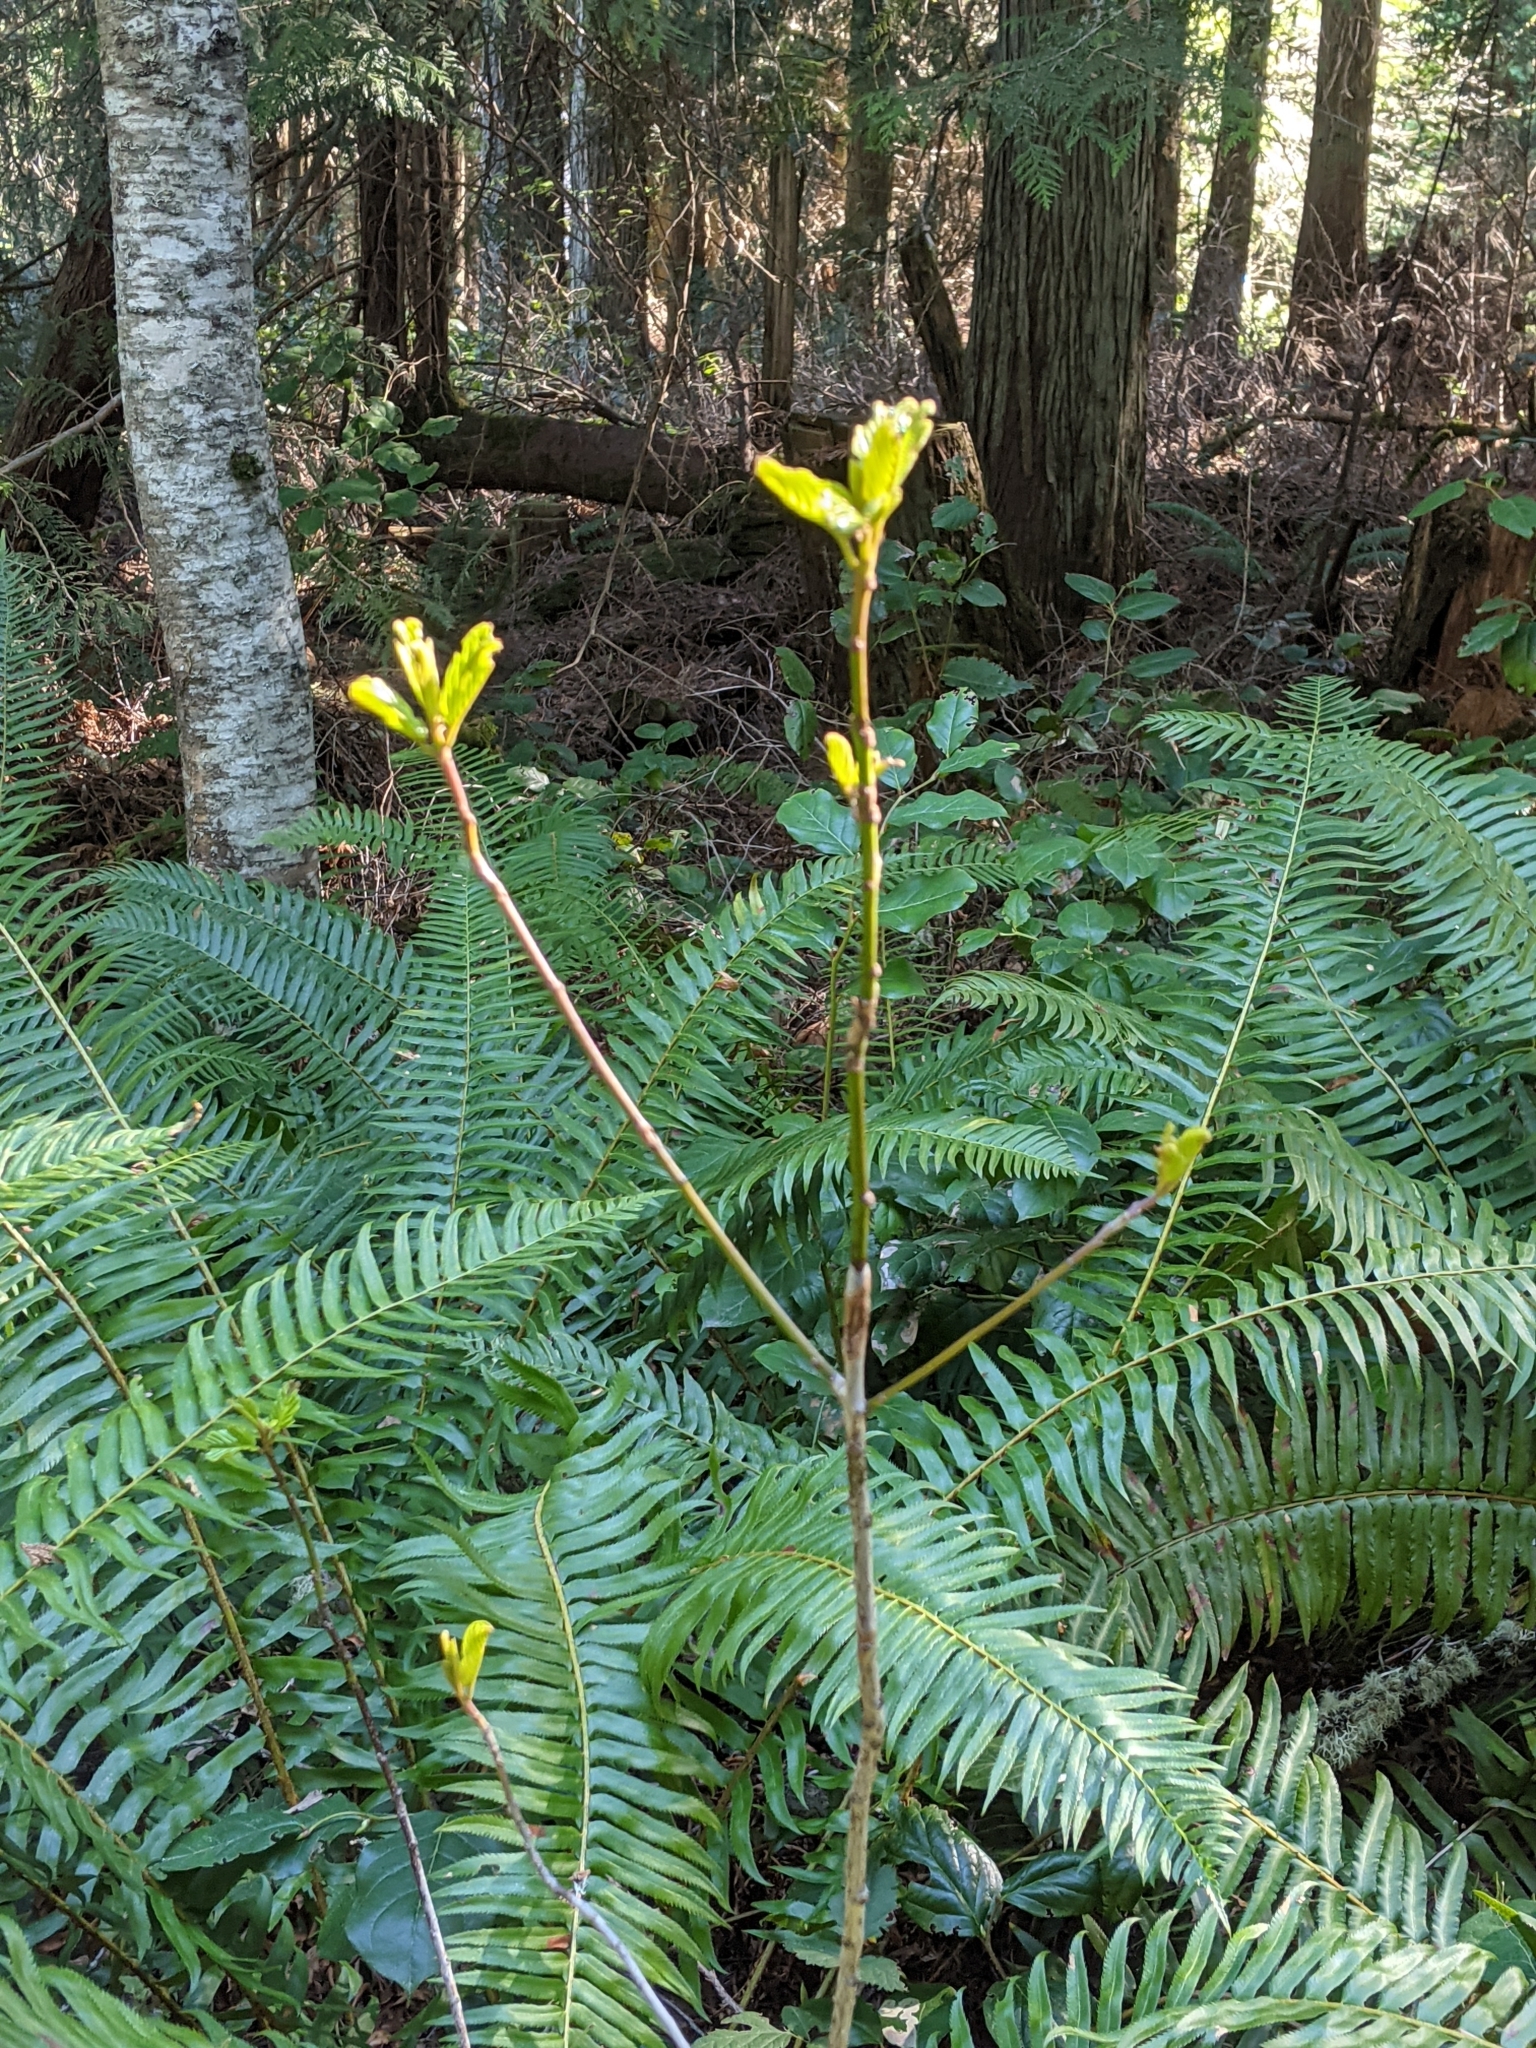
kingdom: Plantae
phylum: Tracheophyta
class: Magnoliopsida
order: Rosales
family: Rhamnaceae
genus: Frangula
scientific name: Frangula purshiana
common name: Cascara buckthorn
